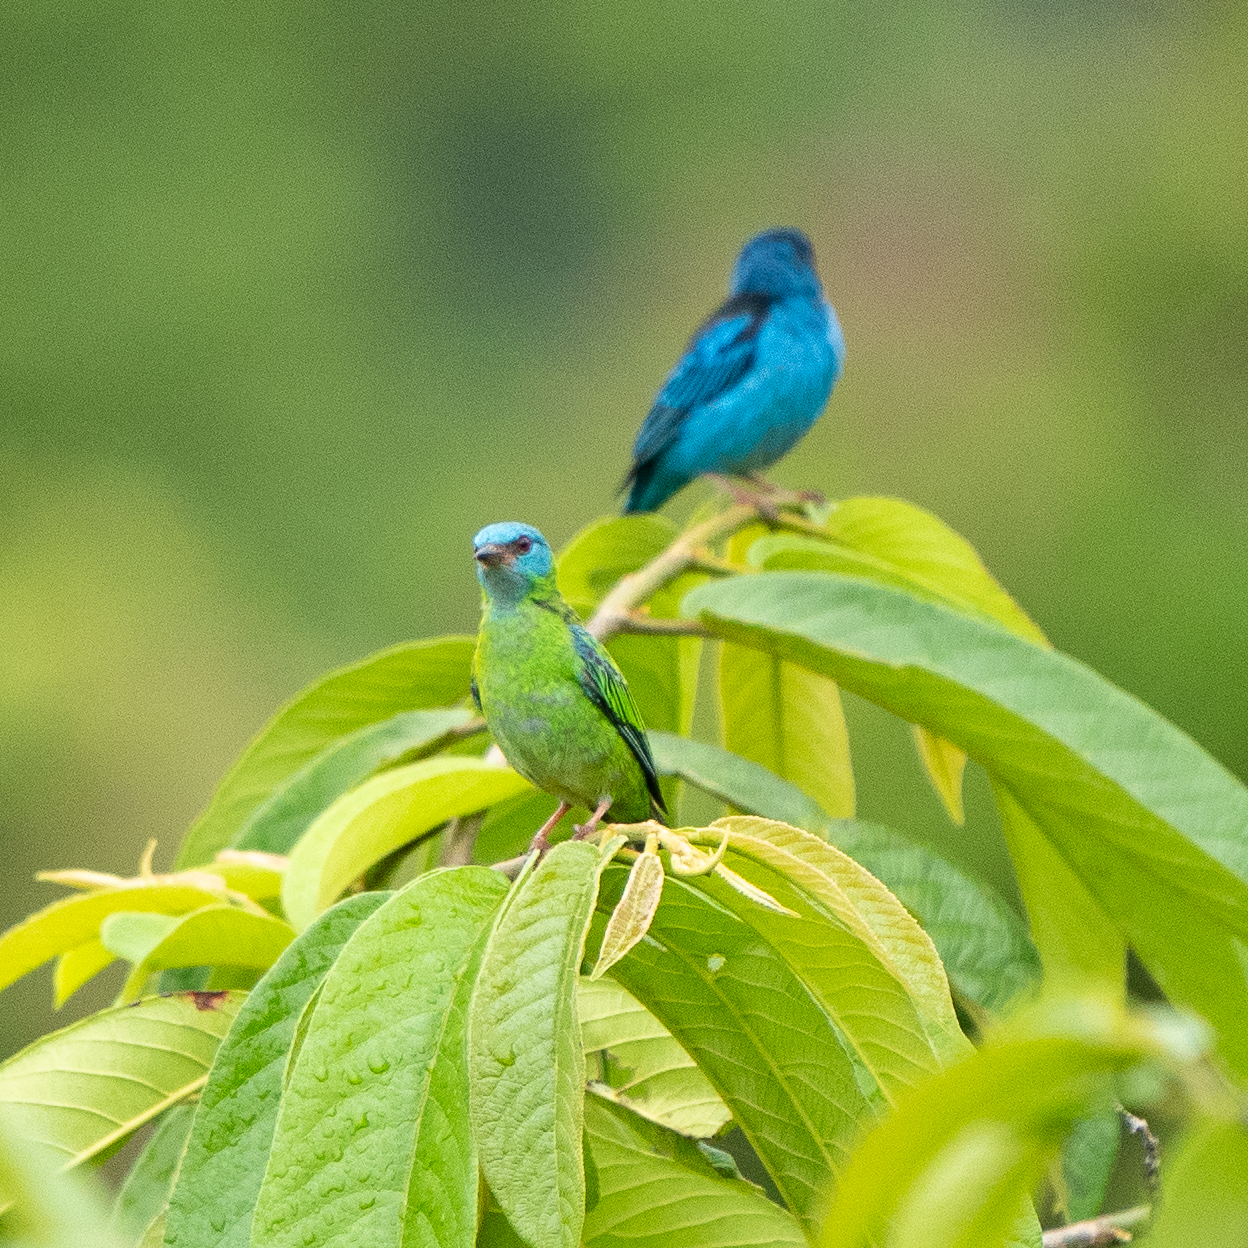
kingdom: Animalia
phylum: Chordata
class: Aves
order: Passeriformes
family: Thraupidae
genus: Dacnis
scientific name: Dacnis cayana
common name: Blue dacnis
